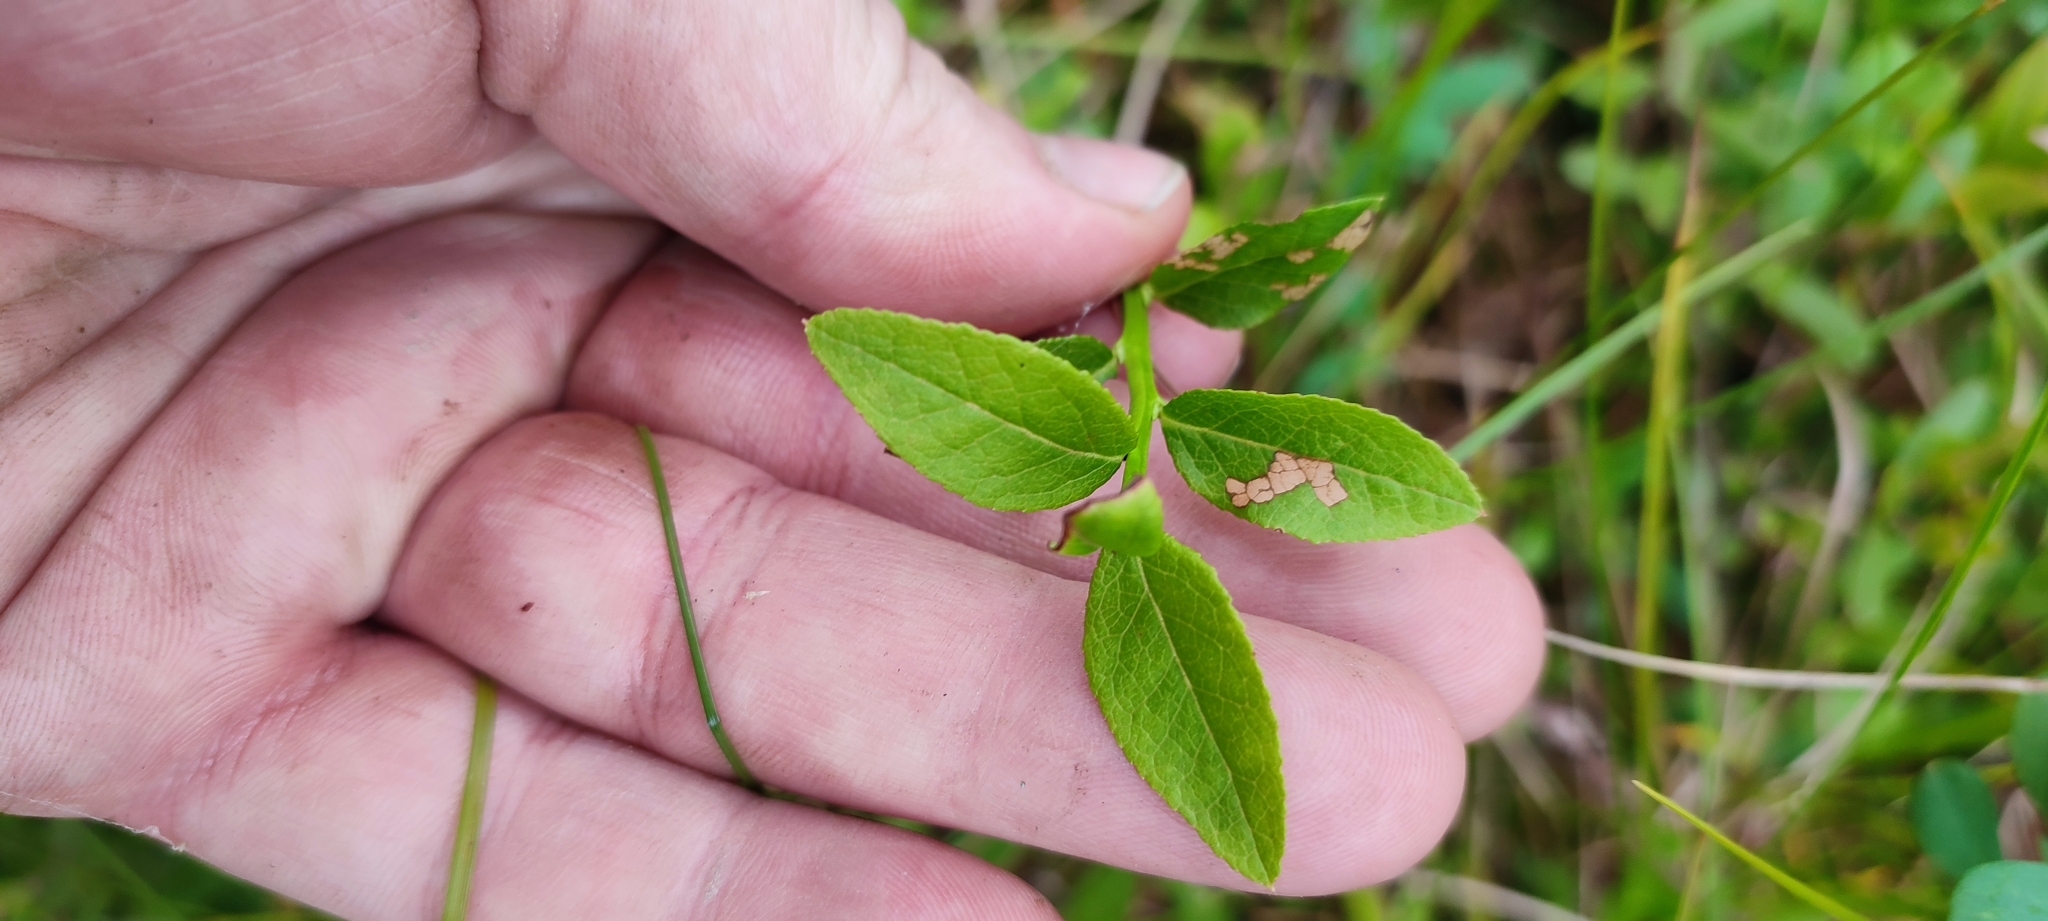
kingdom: Plantae
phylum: Tracheophyta
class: Magnoliopsida
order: Ericales
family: Ericaceae
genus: Vaccinium
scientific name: Vaccinium myrtillus
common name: Bilberry
